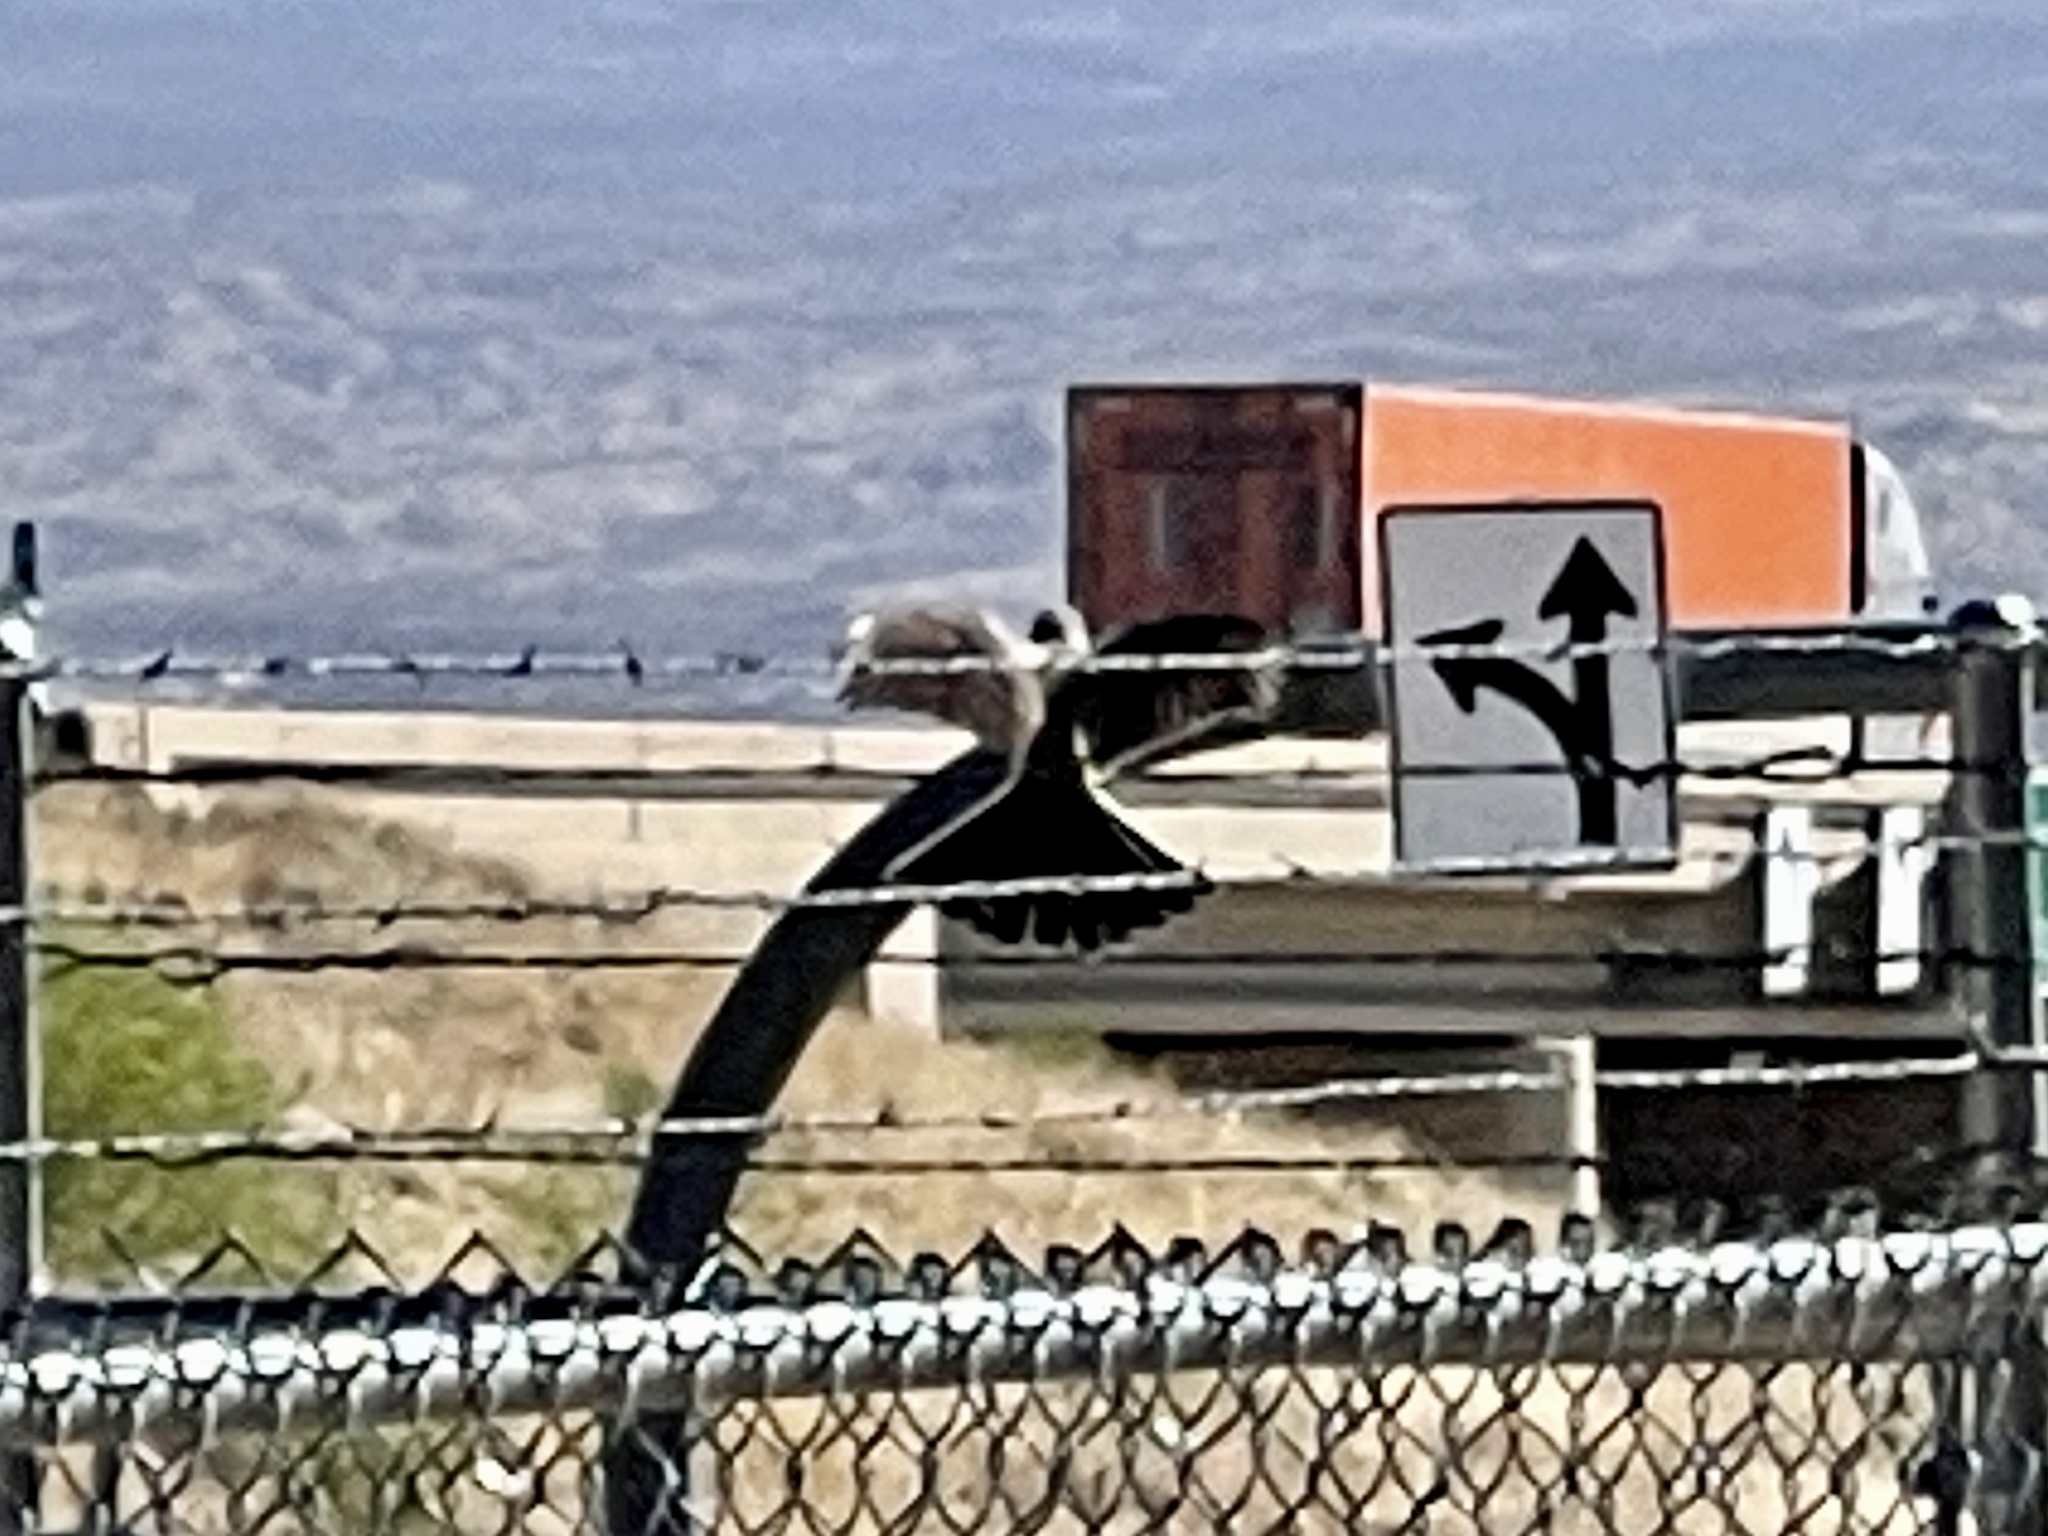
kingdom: Animalia
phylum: Chordata
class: Aves
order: Passeriformes
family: Tyrannidae
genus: Tyrannus
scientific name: Tyrannus verticalis
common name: Western kingbird
